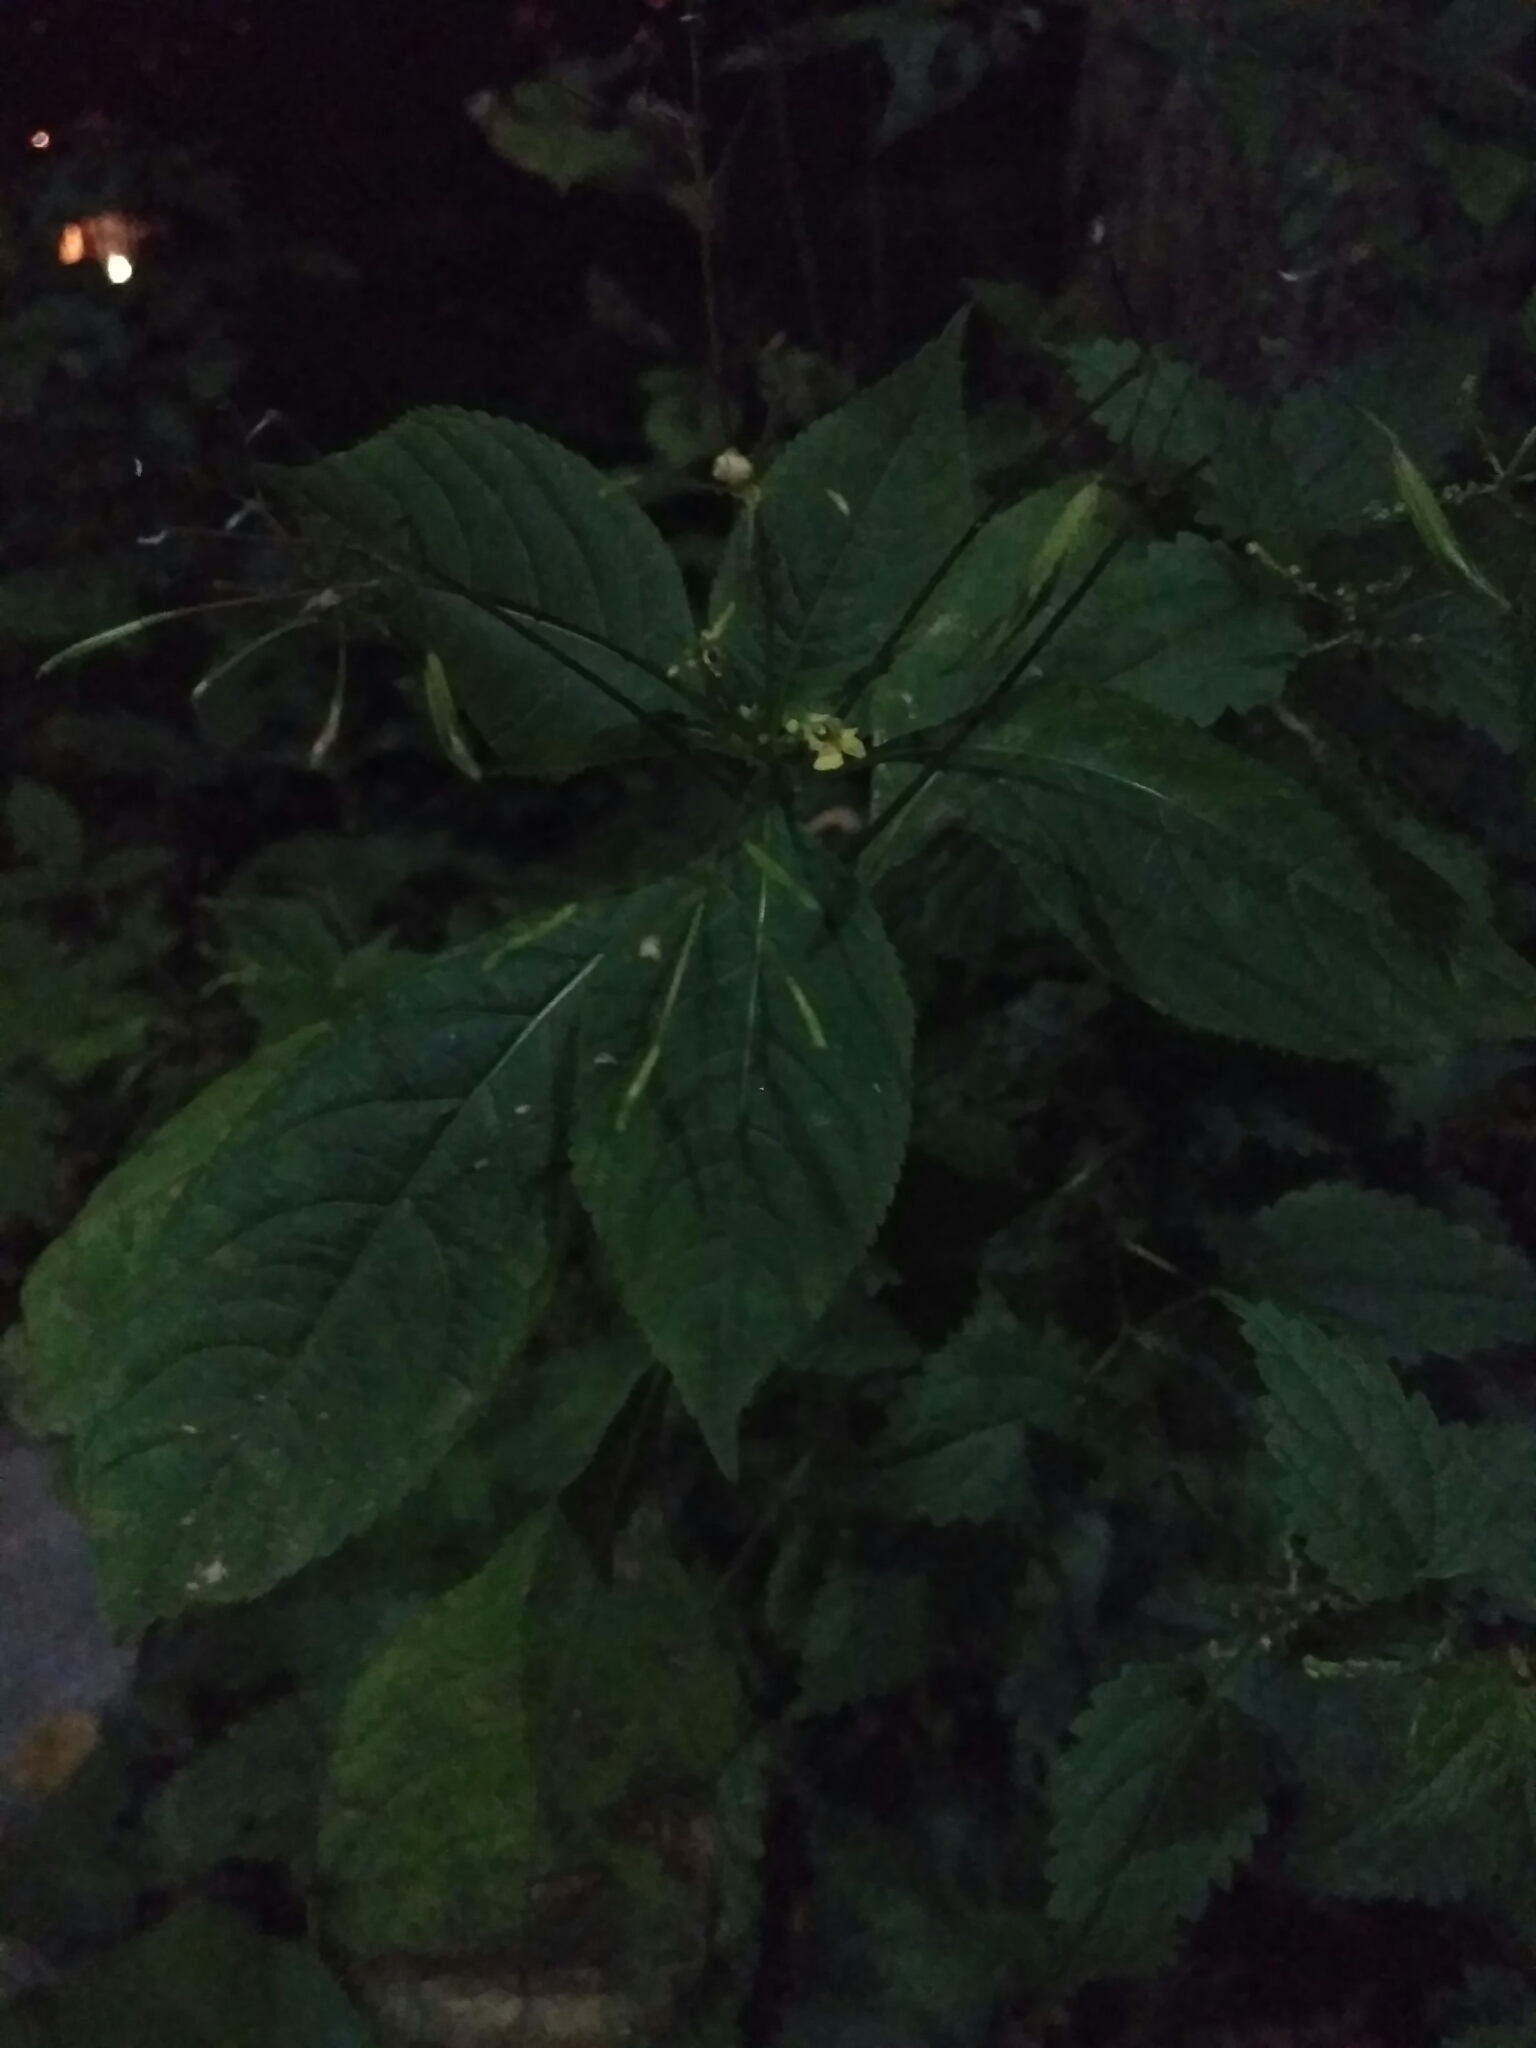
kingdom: Plantae
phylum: Tracheophyta
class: Magnoliopsida
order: Ericales
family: Balsaminaceae
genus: Impatiens
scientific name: Impatiens parviflora
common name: Small balsam
